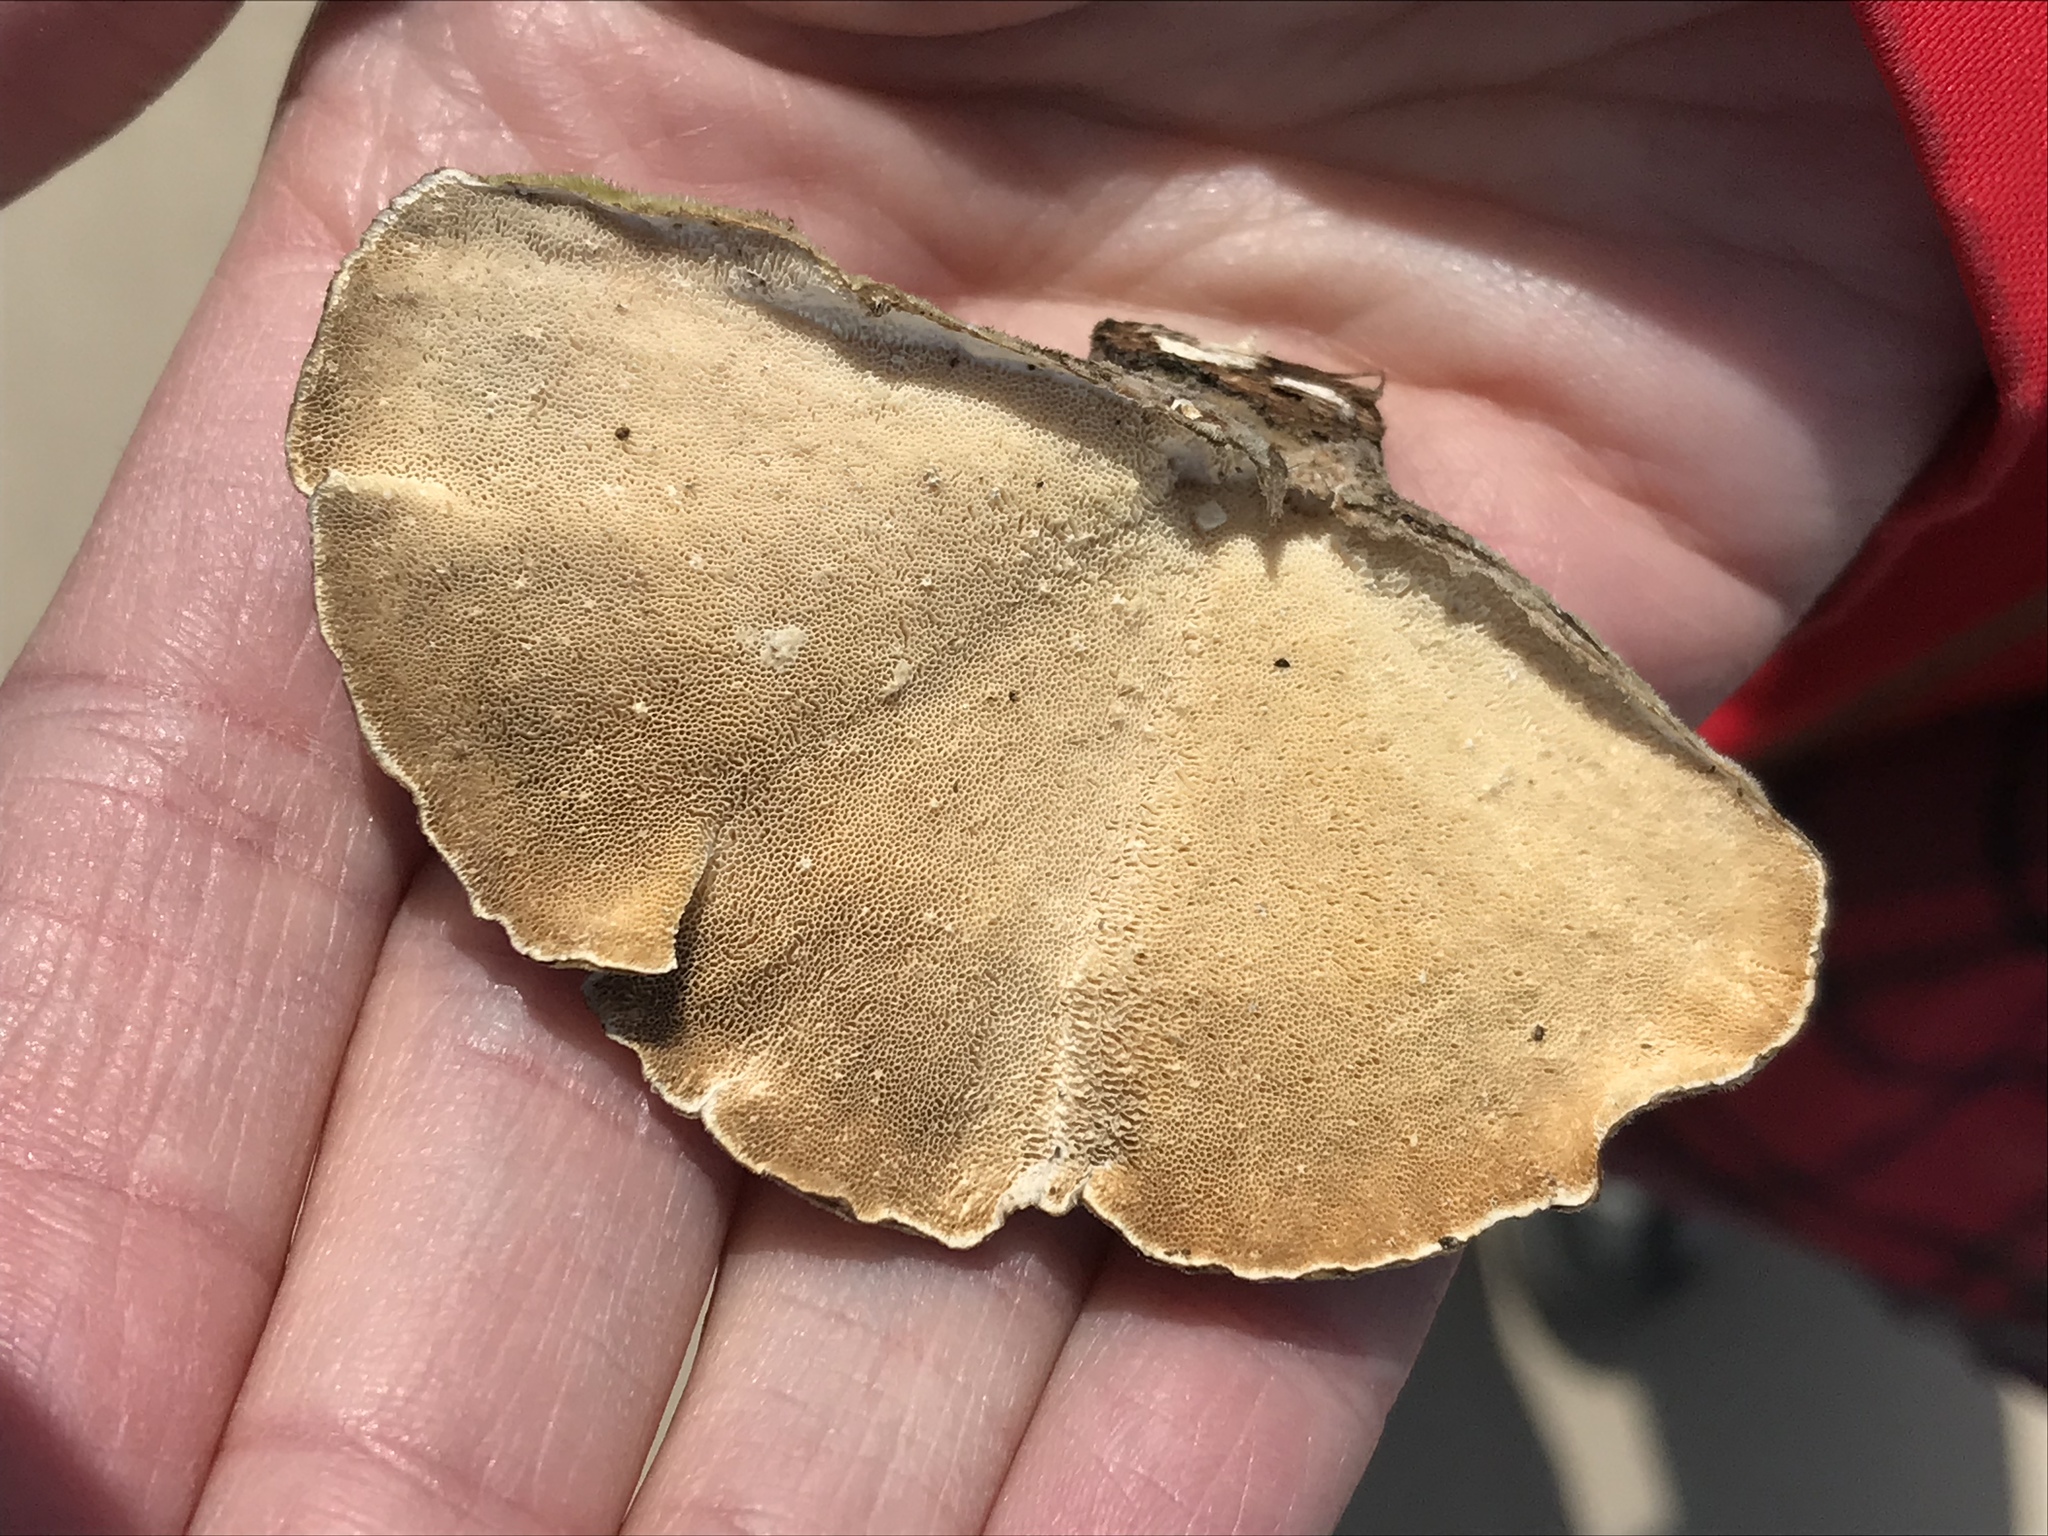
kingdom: Fungi
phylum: Basidiomycota
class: Agaricomycetes
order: Polyporales
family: Polyporaceae
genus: Trametes
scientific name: Trametes versicolor
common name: Turkeytail
